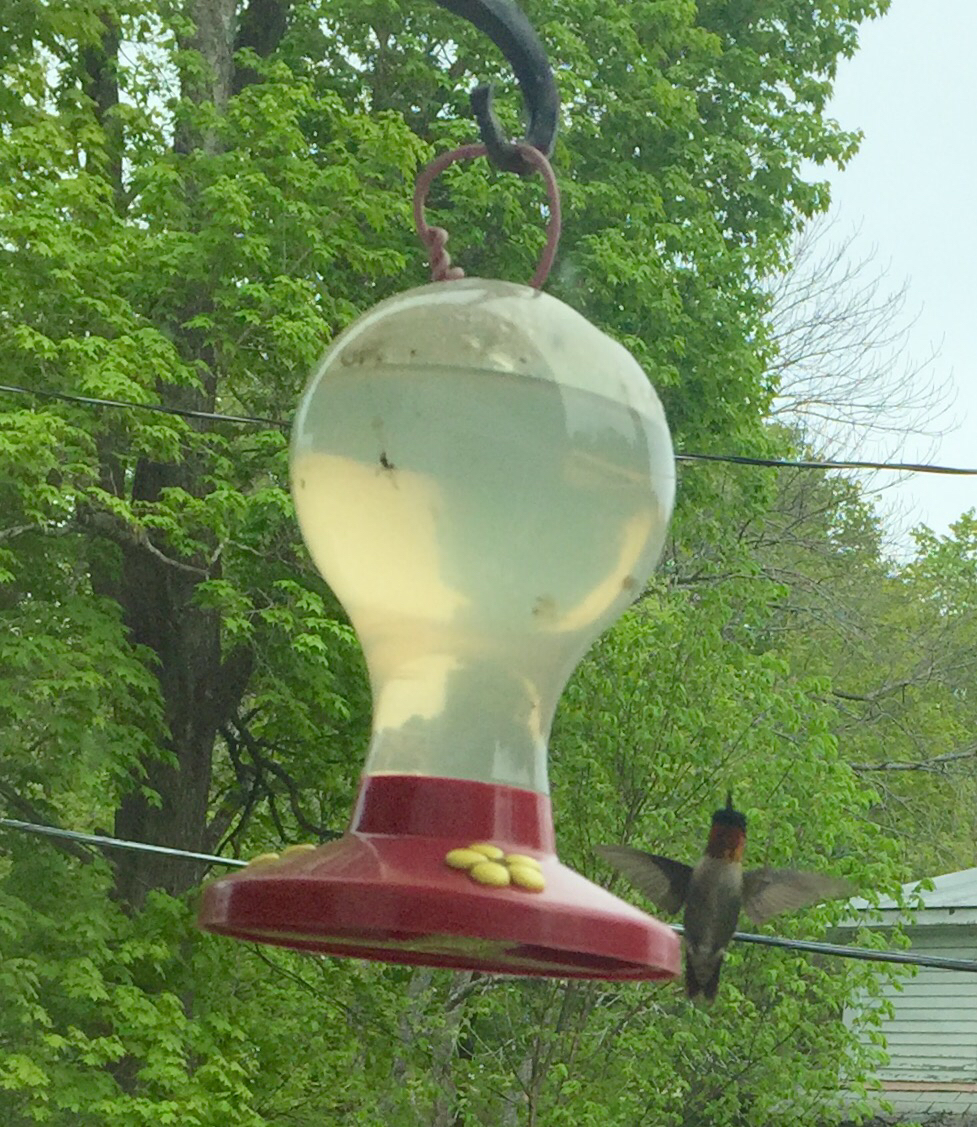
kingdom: Animalia
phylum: Chordata
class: Aves
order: Apodiformes
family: Trochilidae
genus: Archilochus
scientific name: Archilochus colubris
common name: Ruby-throated hummingbird
